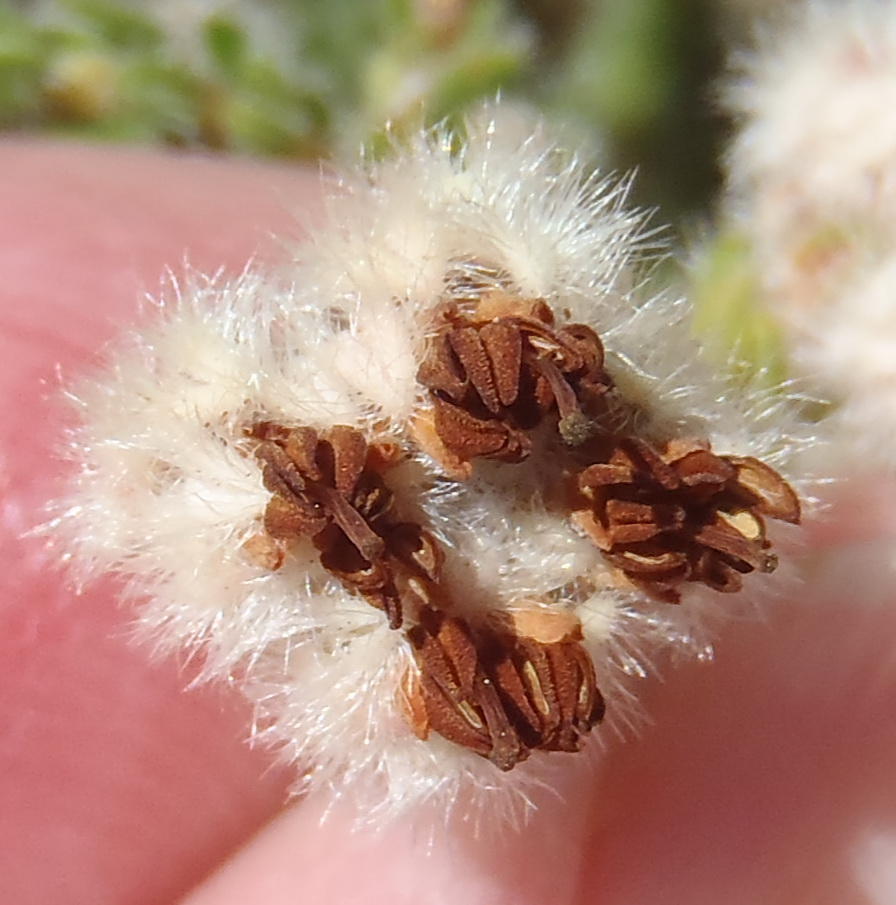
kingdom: Plantae
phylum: Tracheophyta
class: Magnoliopsida
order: Ericales
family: Ericaceae
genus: Erica
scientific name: Erica flaccida
